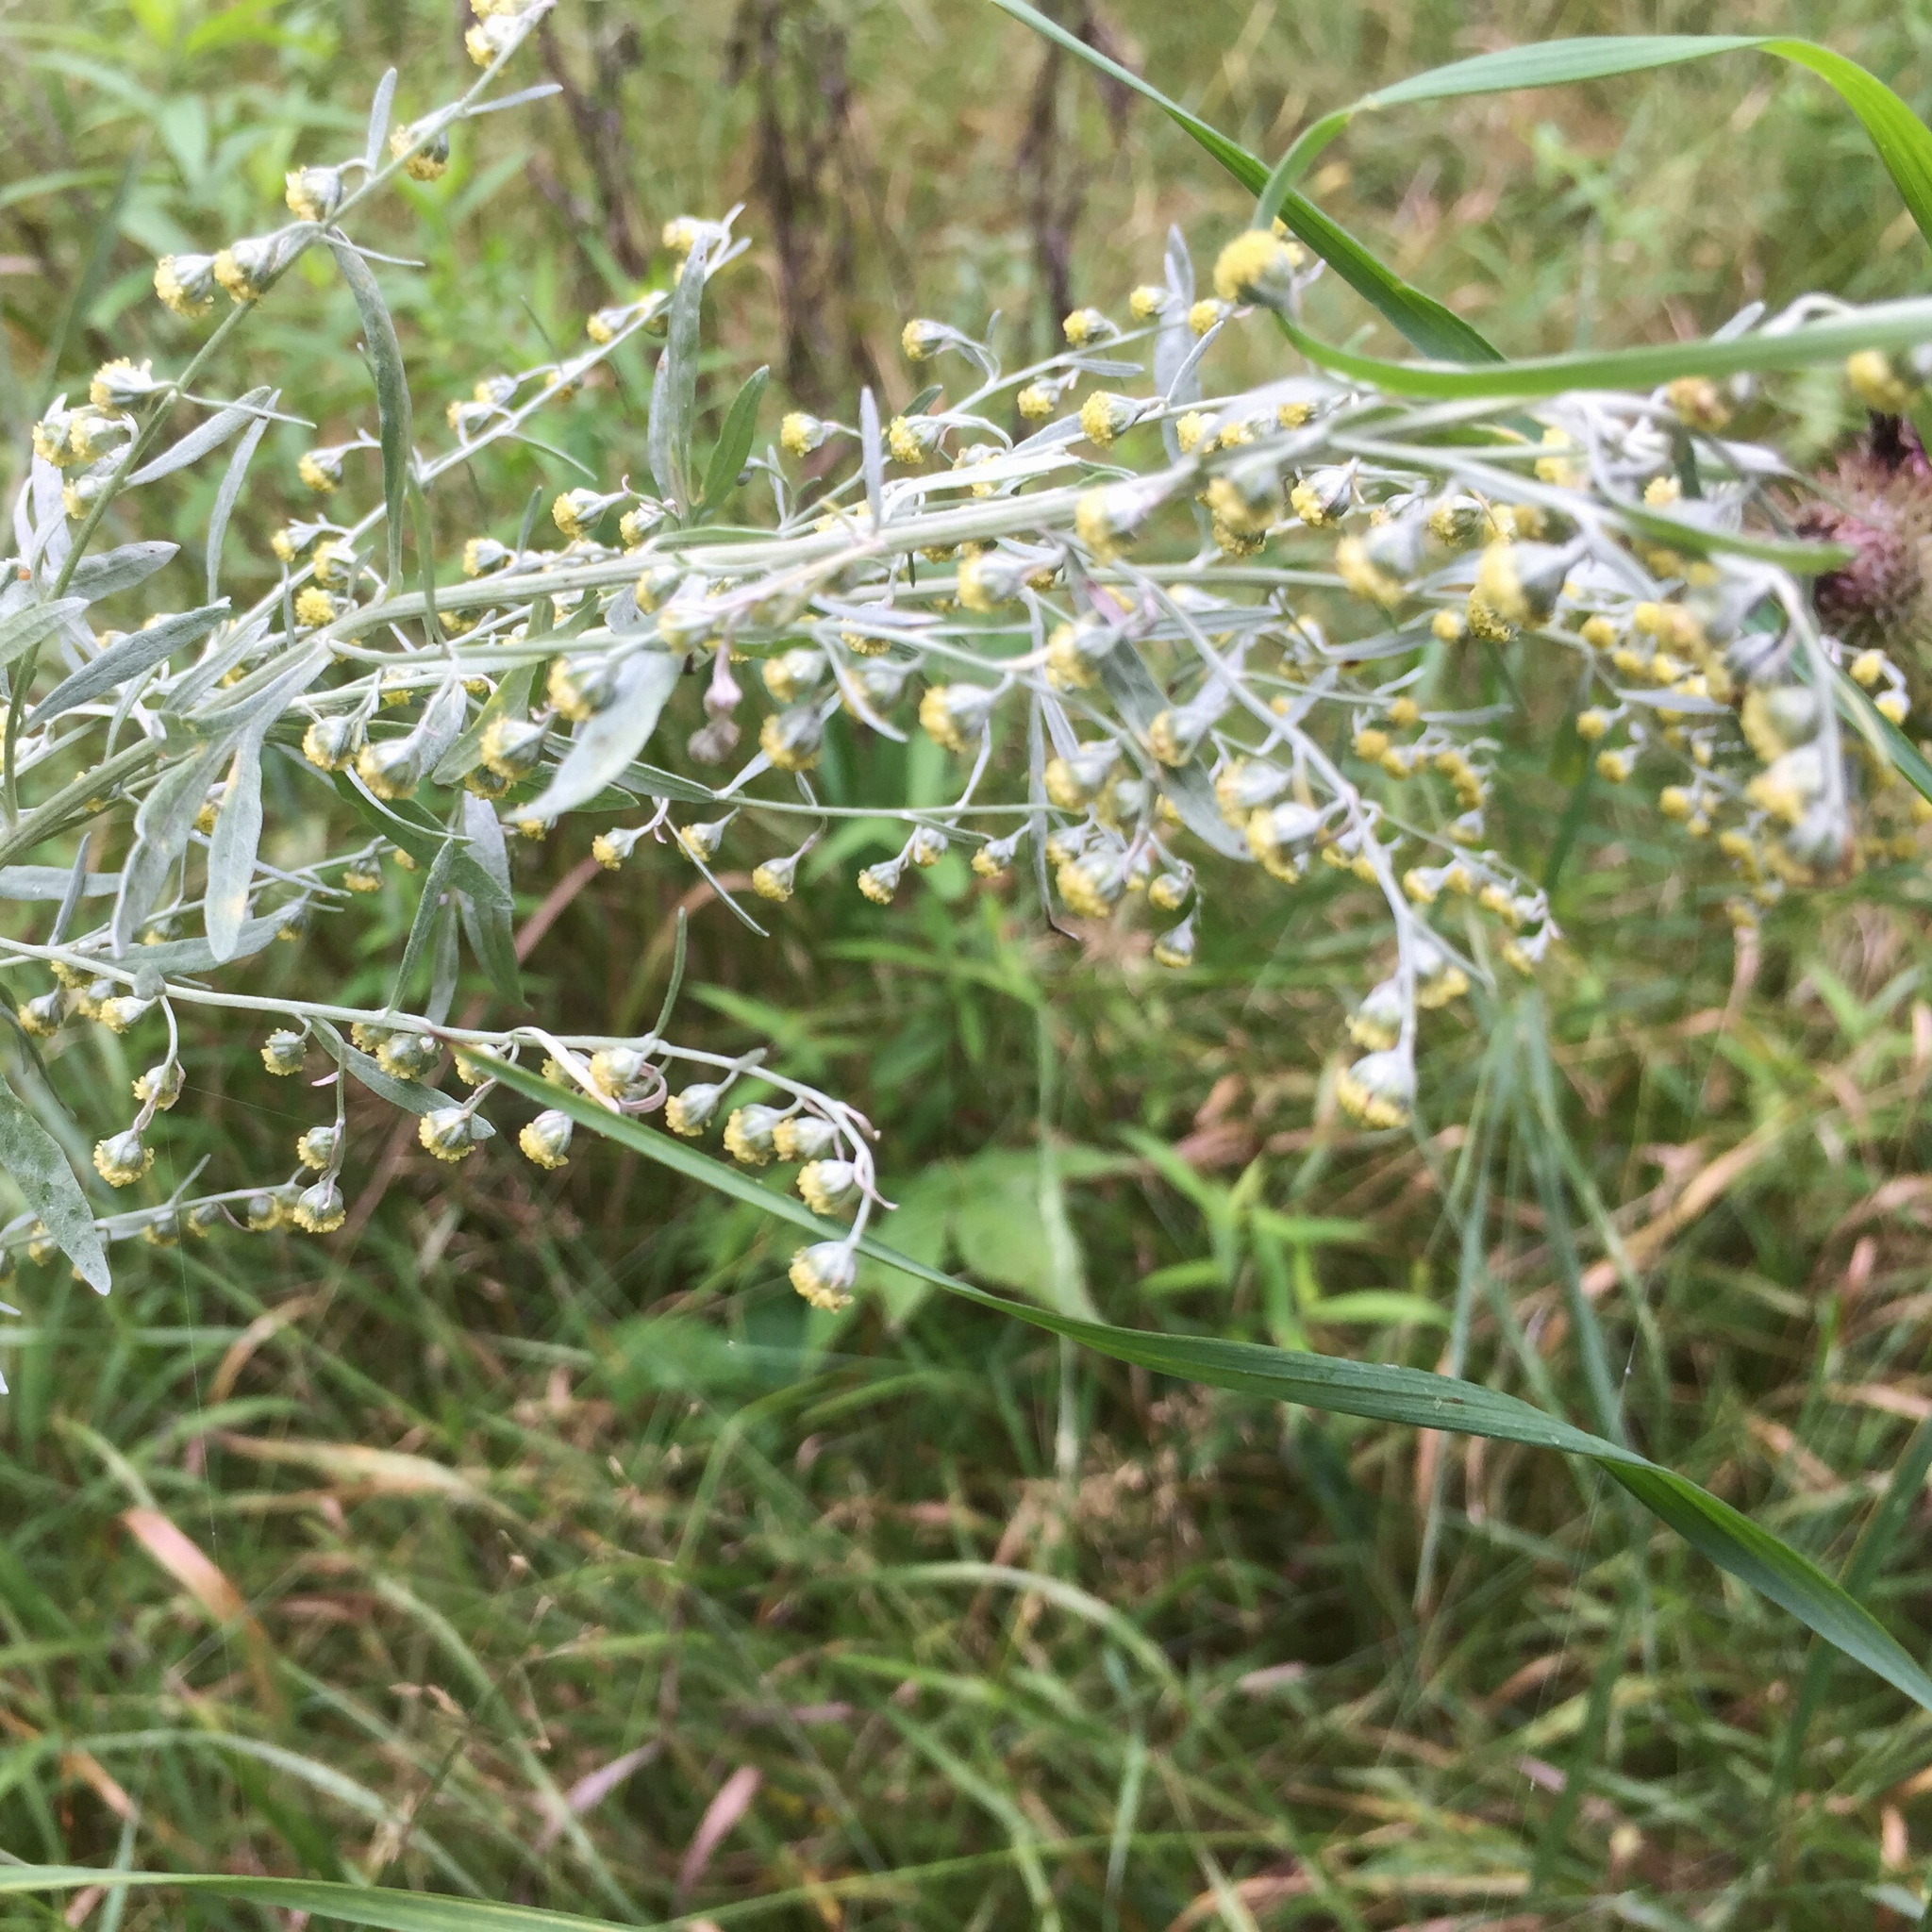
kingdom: Plantae
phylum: Tracheophyta
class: Magnoliopsida
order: Asterales
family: Asteraceae
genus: Artemisia
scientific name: Artemisia absinthium
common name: Wormwood
